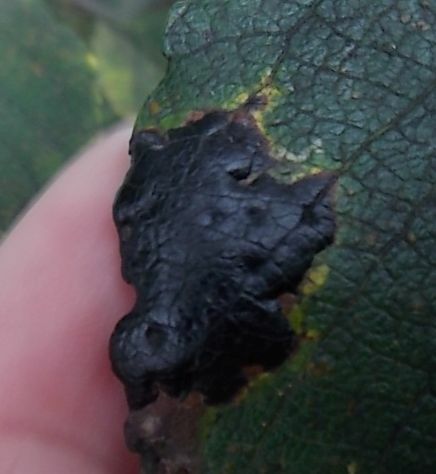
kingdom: Fungi
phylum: Ascomycota
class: Leotiomycetes
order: Rhytismatales
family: Rhytismataceae
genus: Rhytisma
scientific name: Rhytisma salicinum
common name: Willow tarspot
